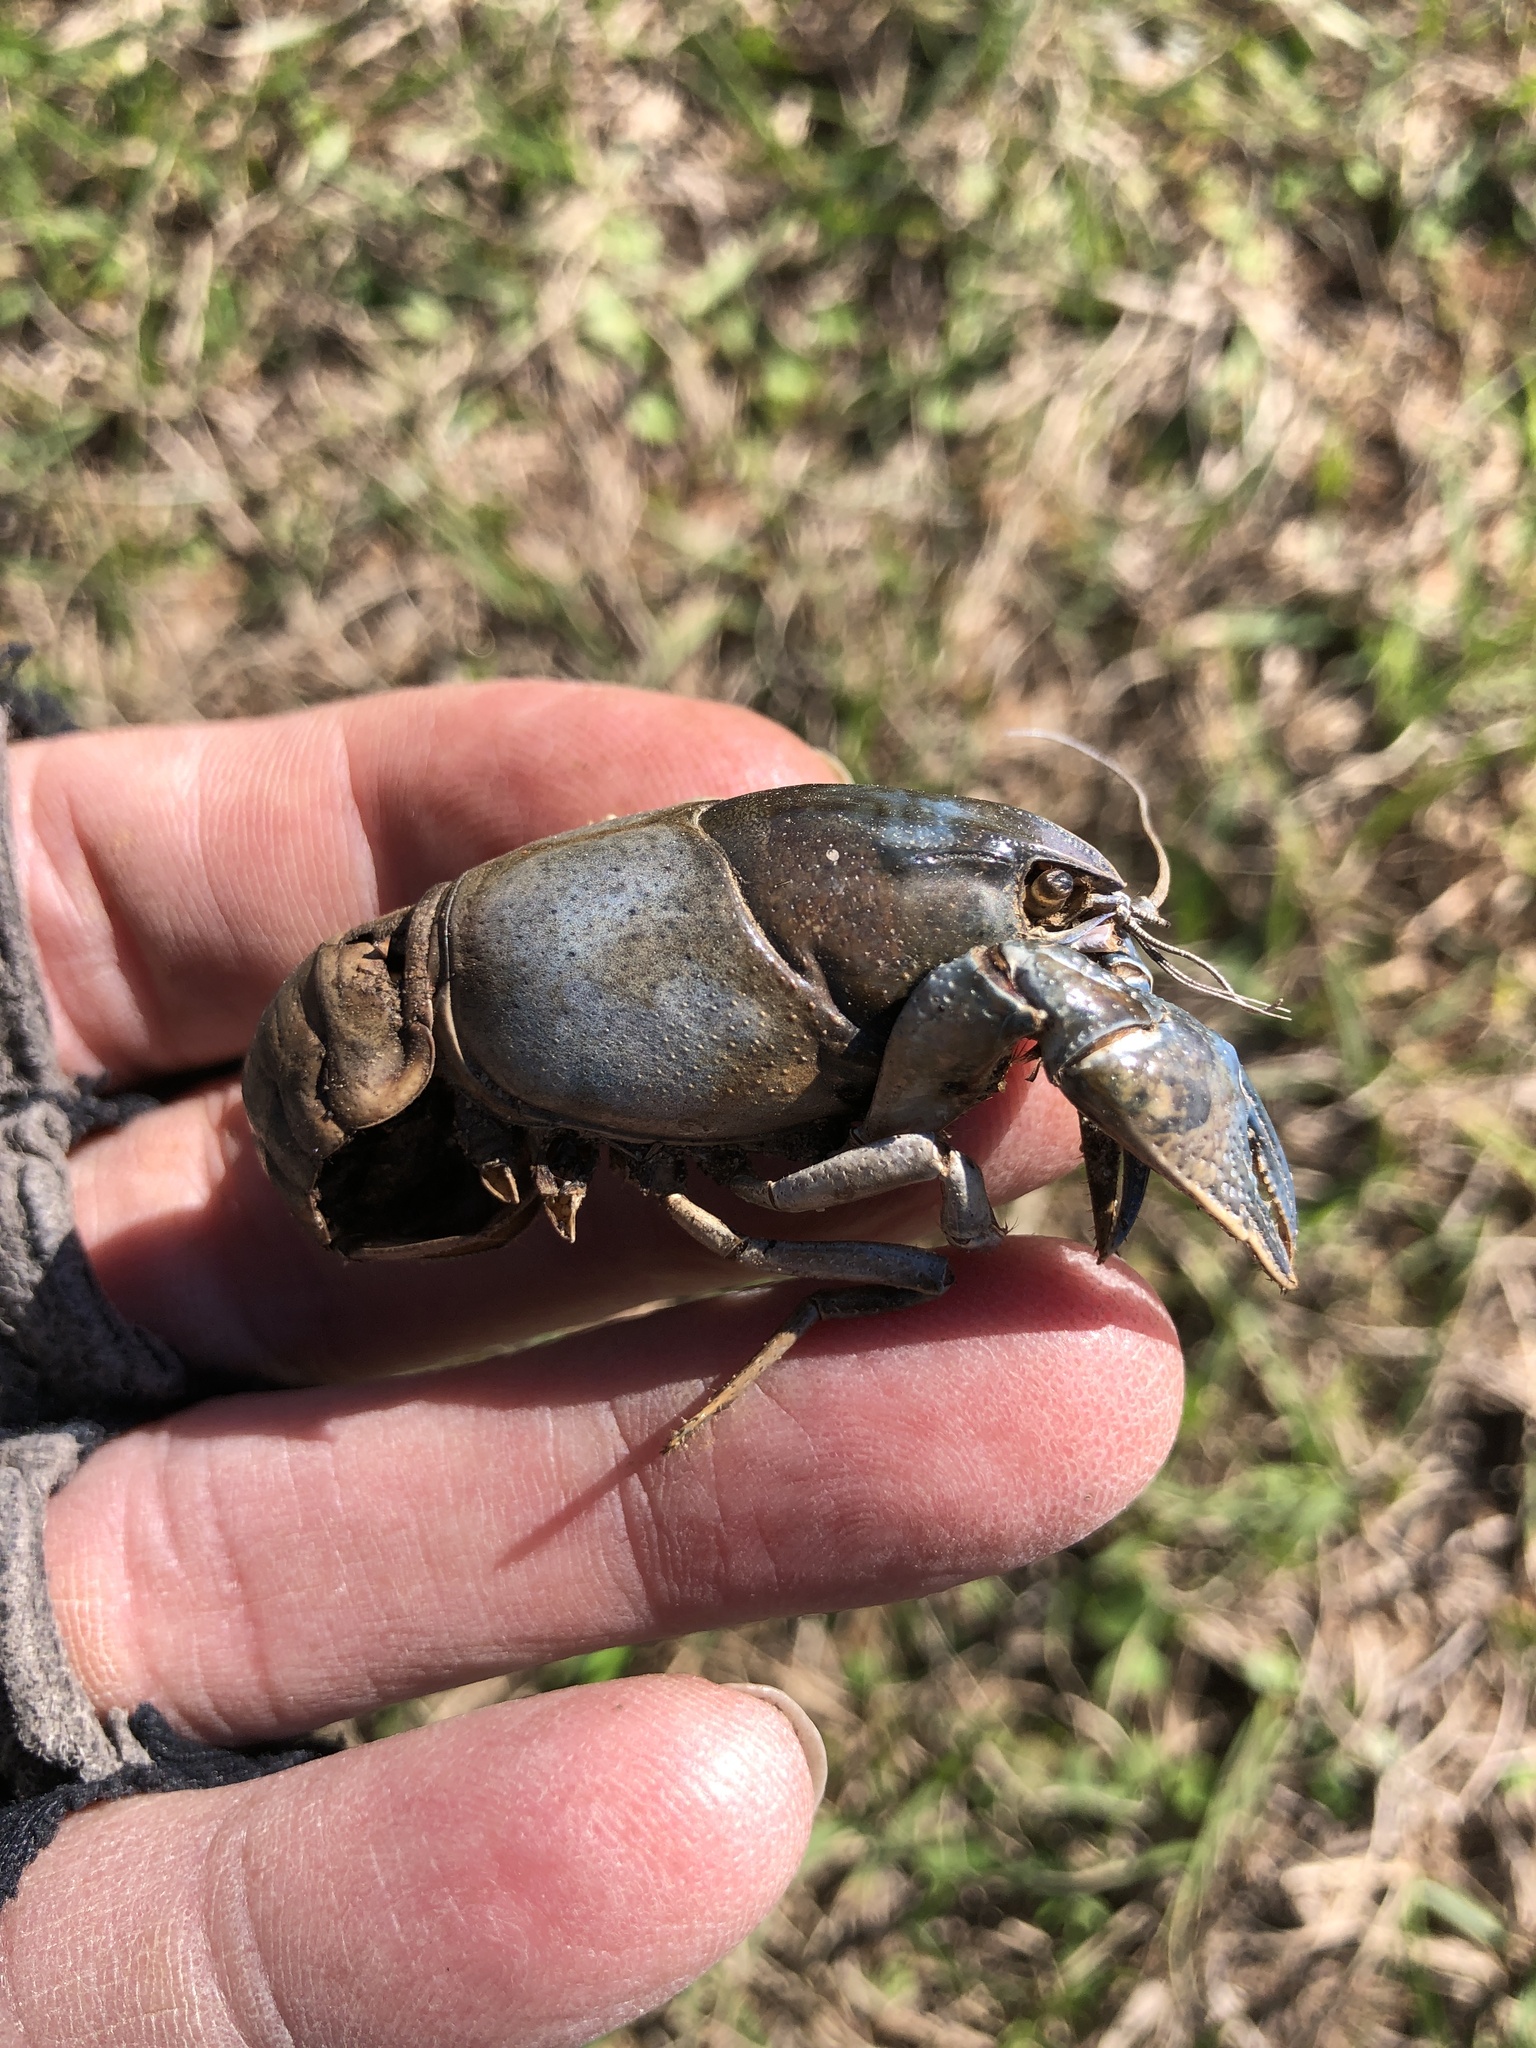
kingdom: Animalia
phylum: Arthropoda
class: Malacostraca
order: Decapoda
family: Cambaridae
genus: Creaserinus
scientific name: Creaserinus fodiens
